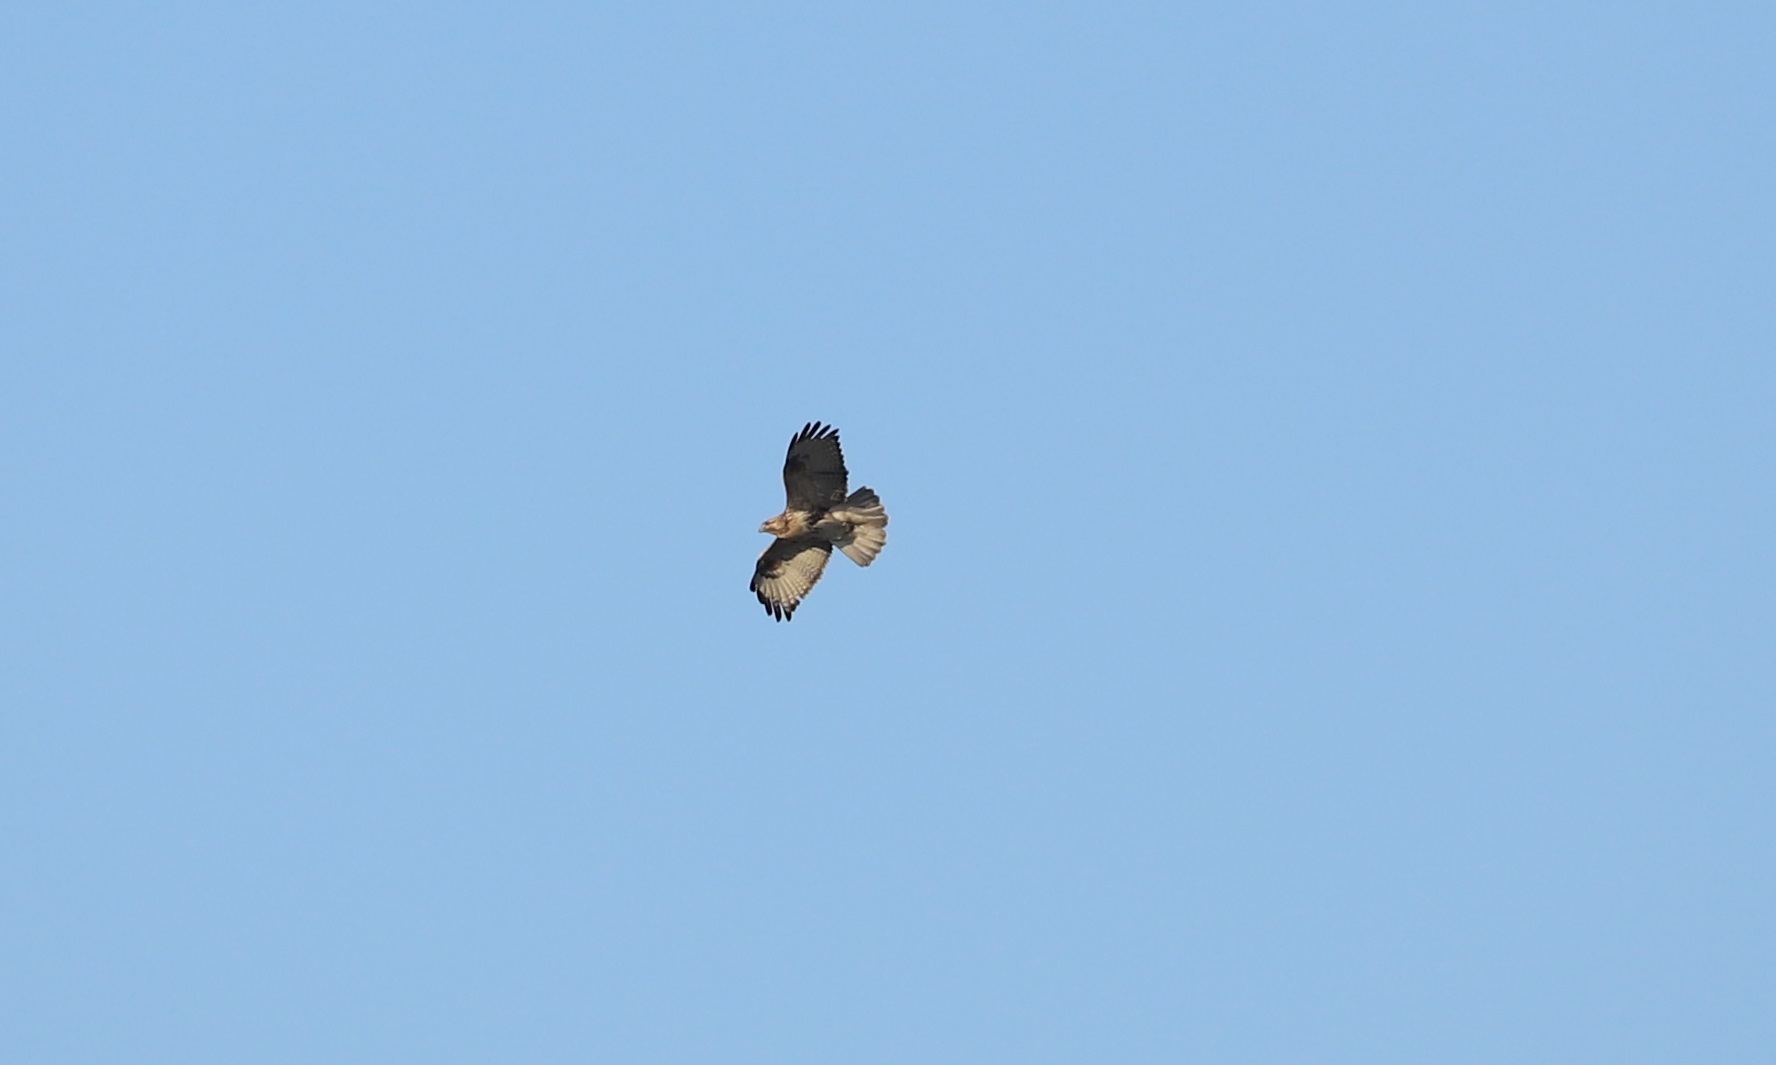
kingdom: Animalia
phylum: Chordata
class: Aves
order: Accipitriformes
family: Accipitridae
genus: Buteo
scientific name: Buteo japonicus
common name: Eastern buzzard
